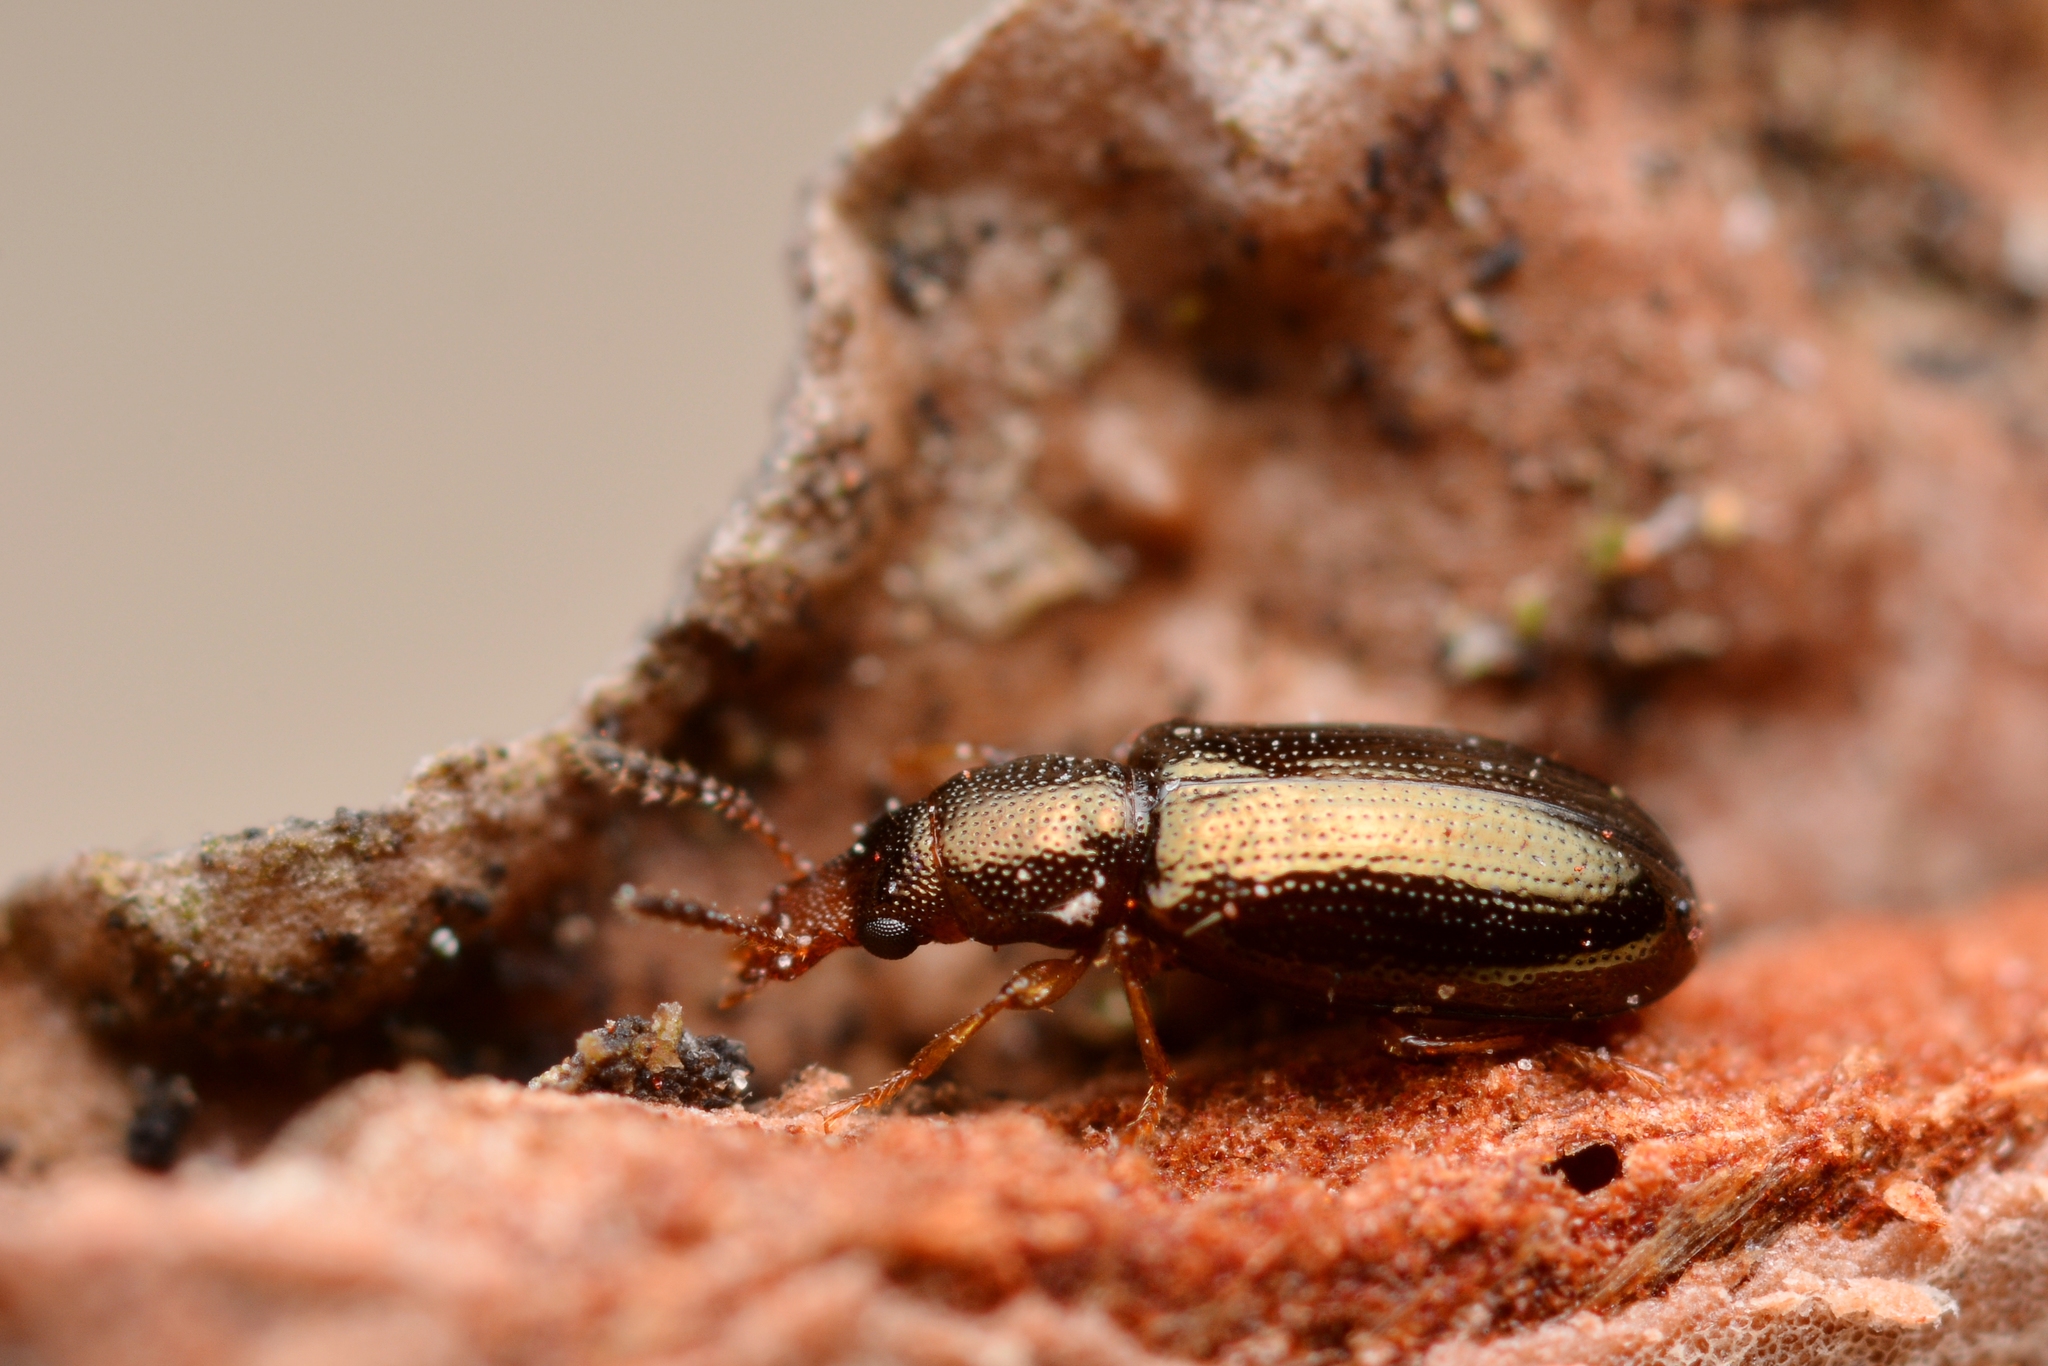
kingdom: Animalia
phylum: Arthropoda
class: Insecta
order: Coleoptera
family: Salpingidae
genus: Salpingus
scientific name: Salpingus planirostris
